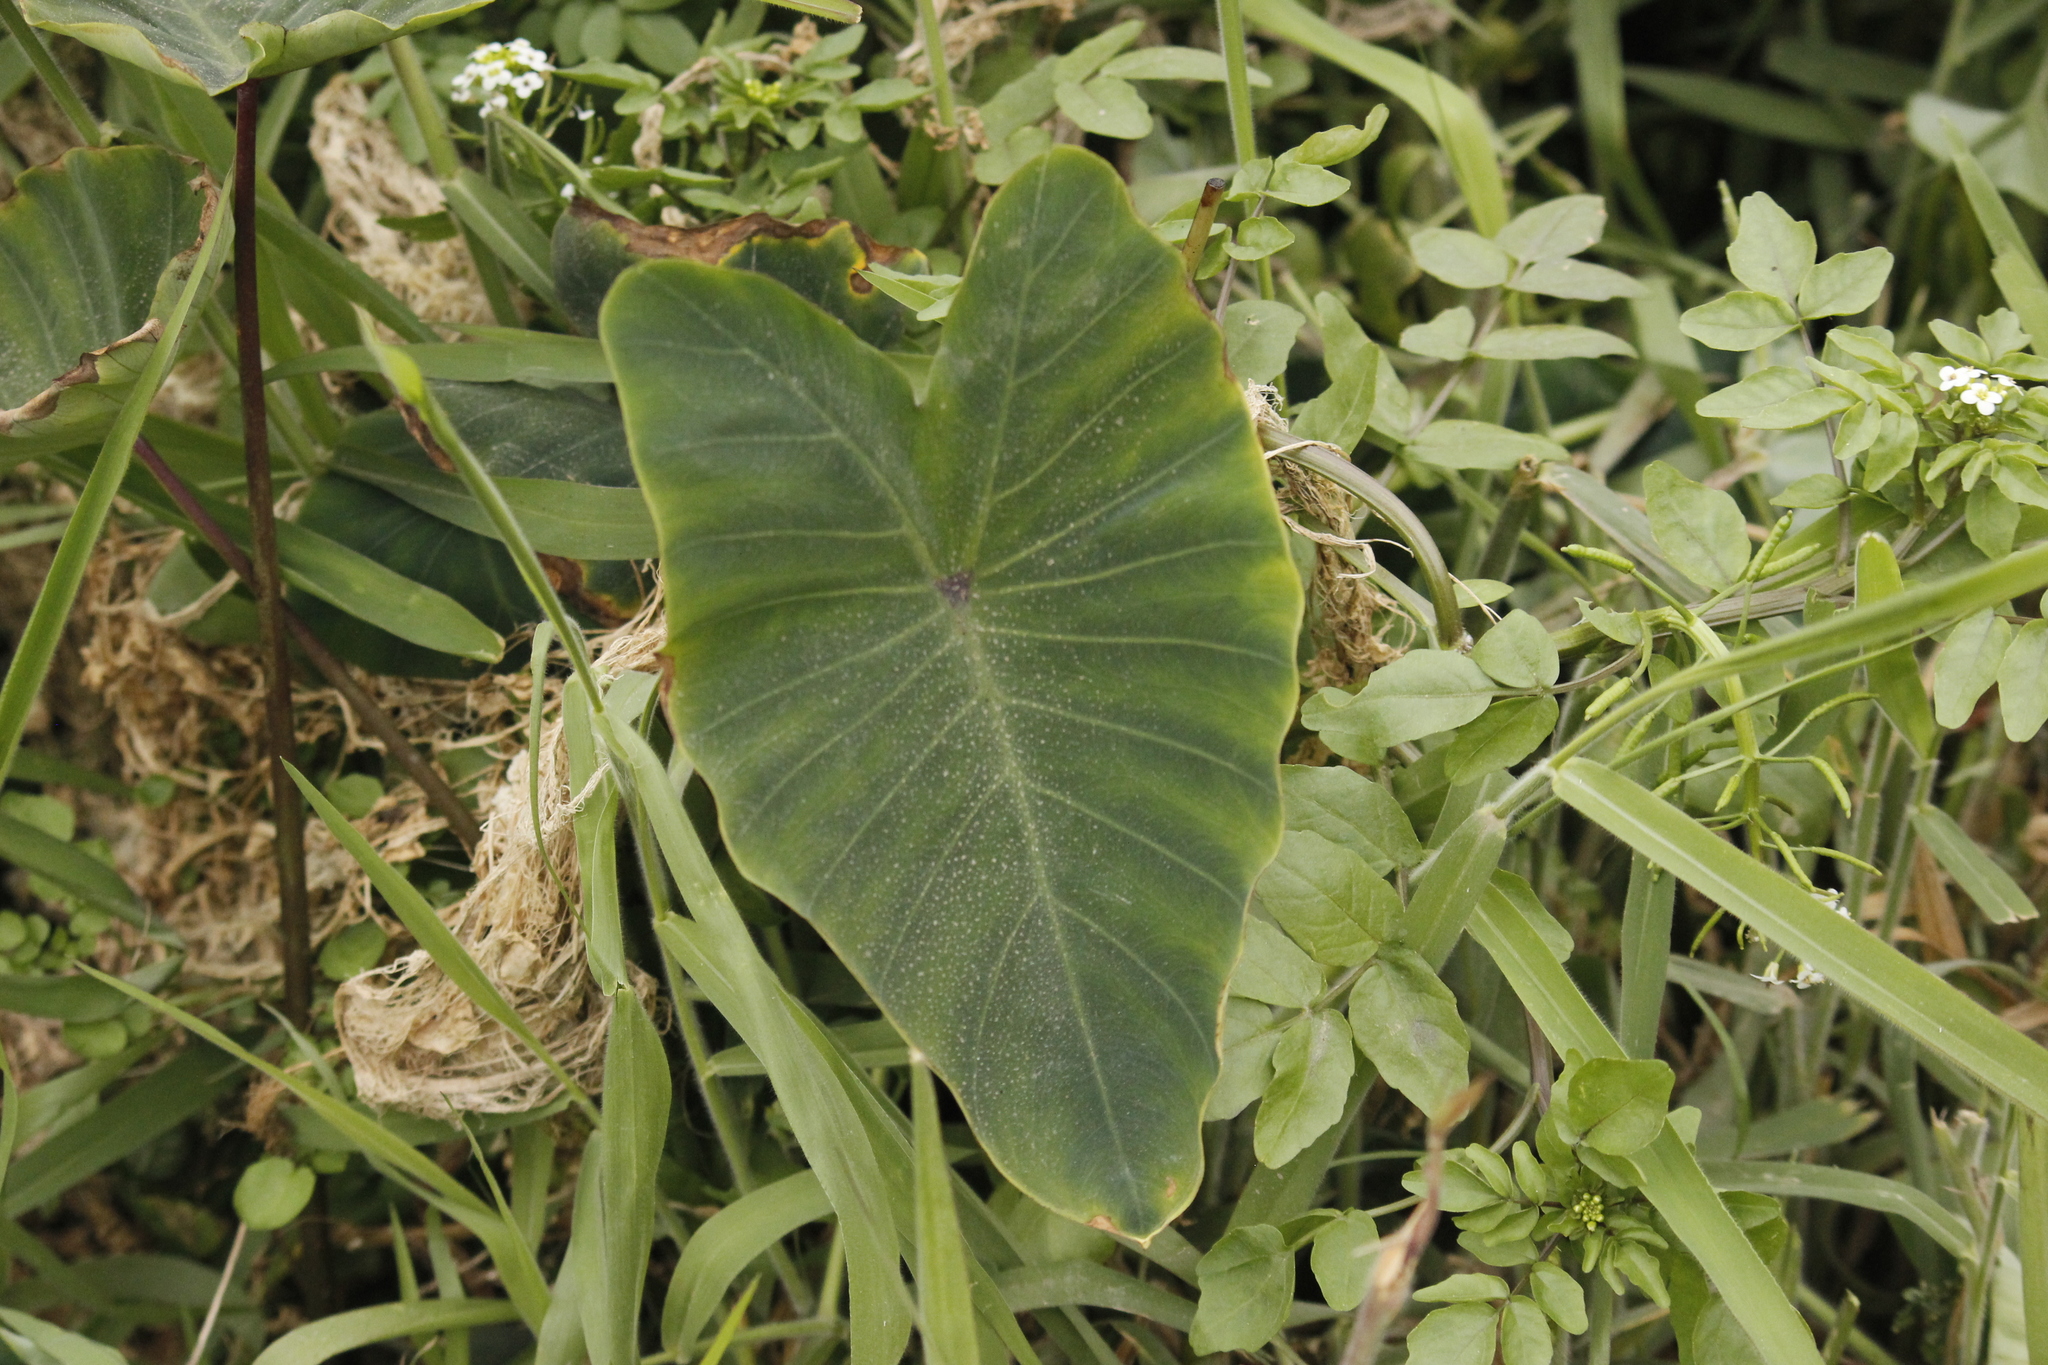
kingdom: Plantae
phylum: Tracheophyta
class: Liliopsida
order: Alismatales
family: Araceae
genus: Colocasia
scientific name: Colocasia esculenta
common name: Taro
